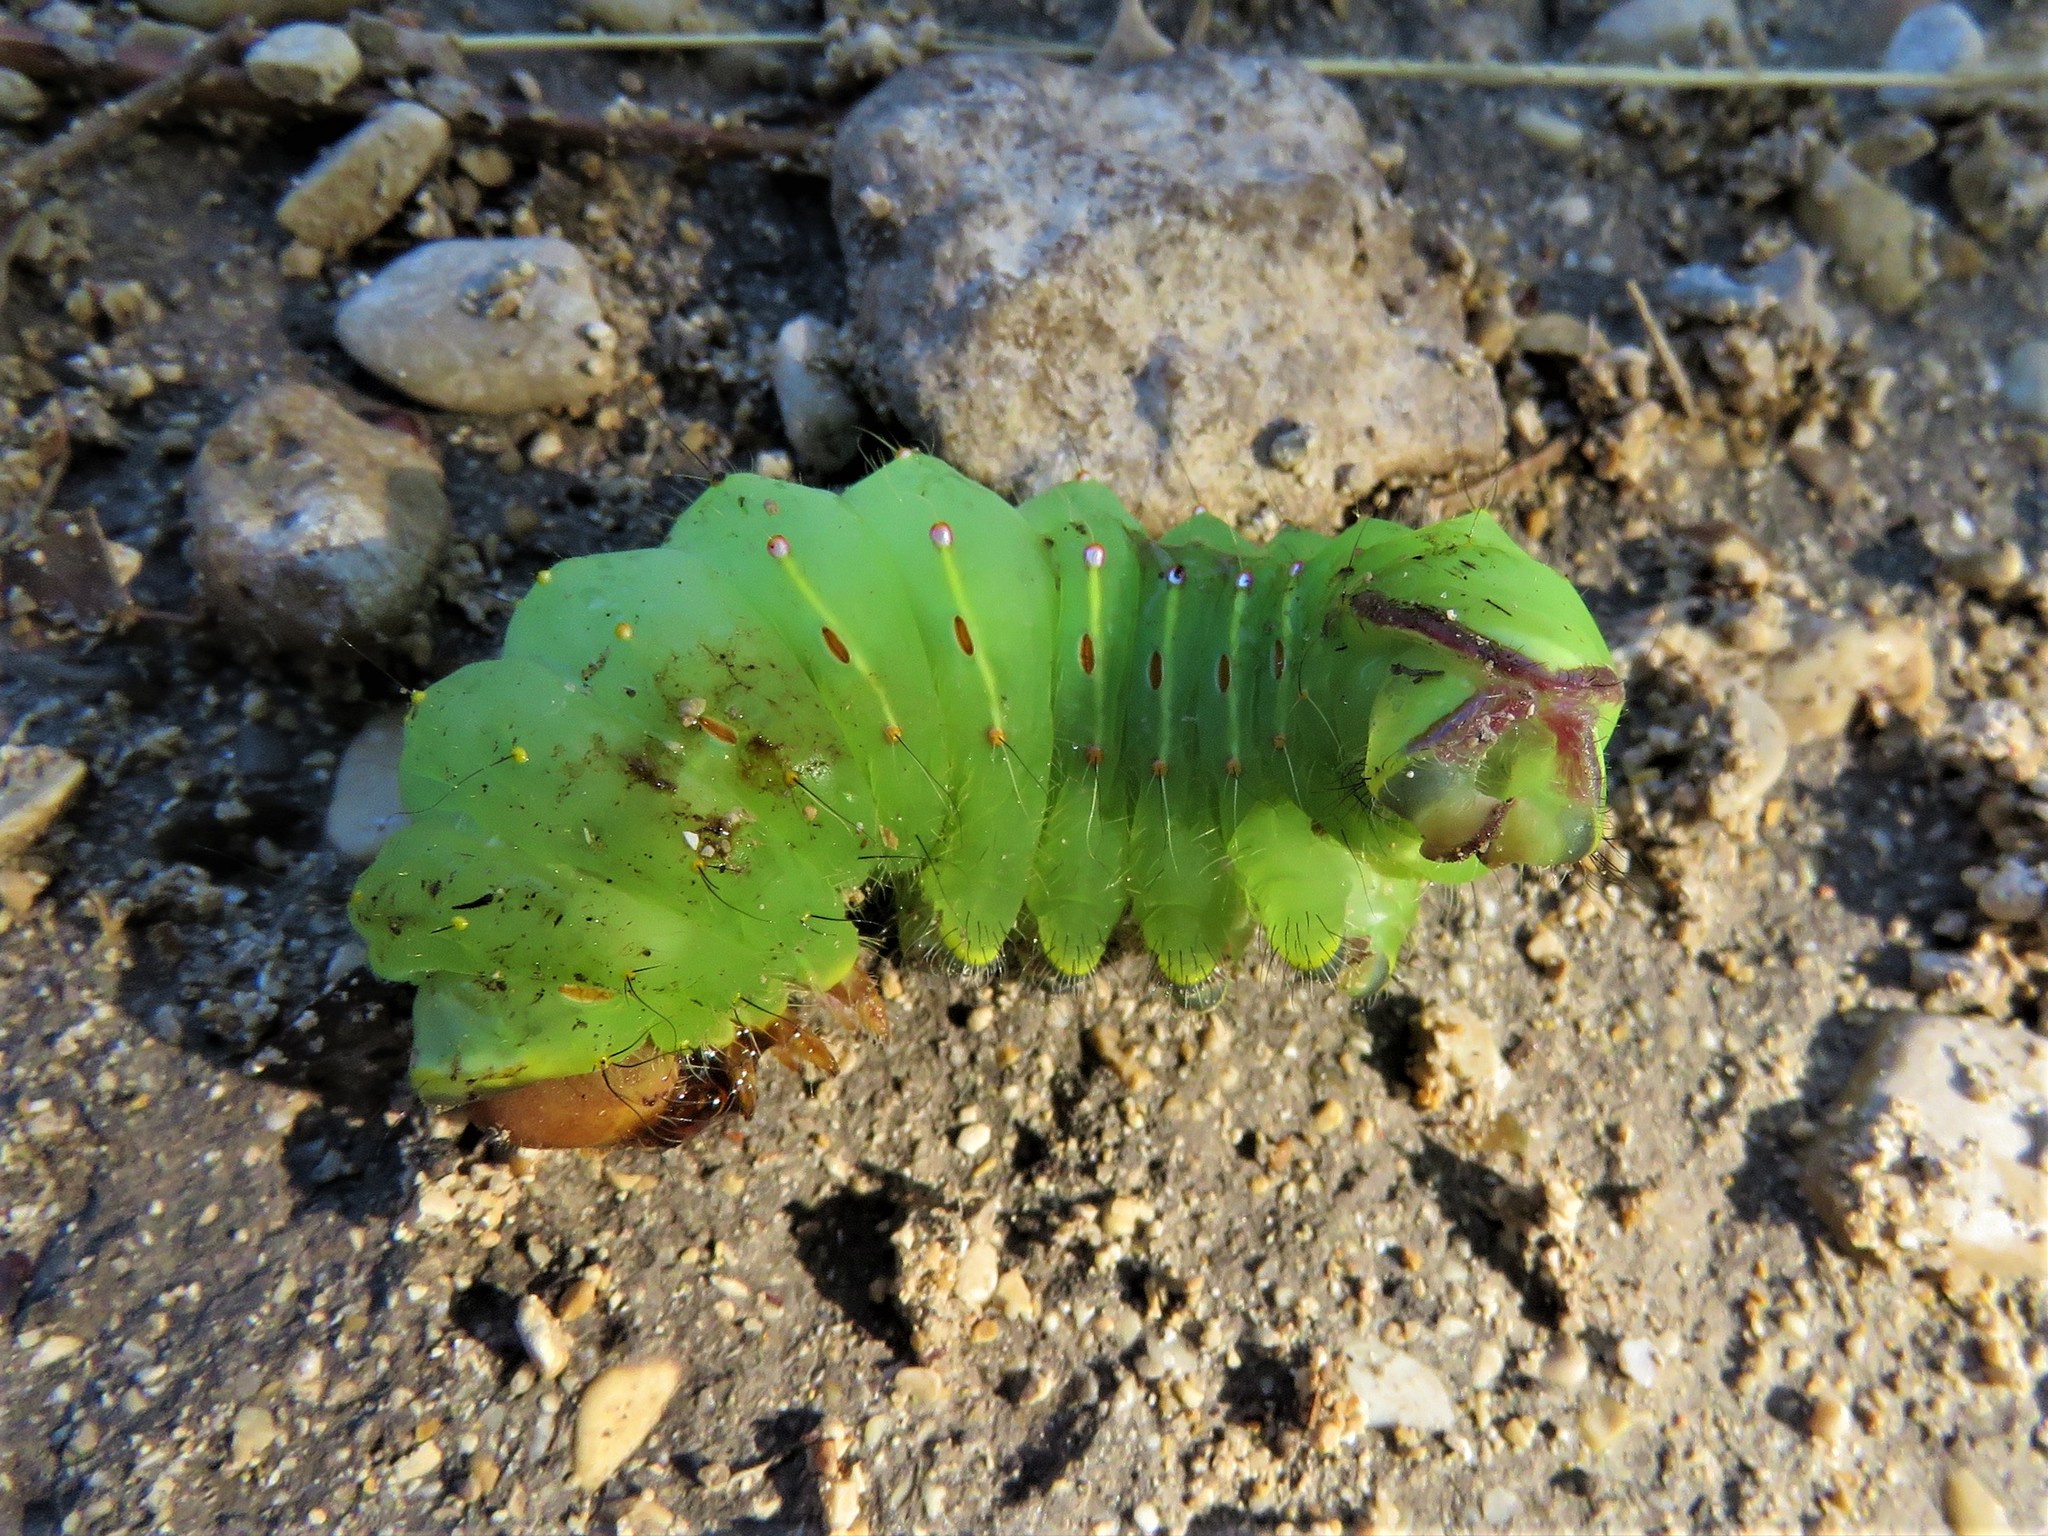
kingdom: Animalia
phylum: Arthropoda
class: Insecta
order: Lepidoptera
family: Saturniidae
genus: Antheraea
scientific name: Antheraea polyphemus
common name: Polyphemus moth
